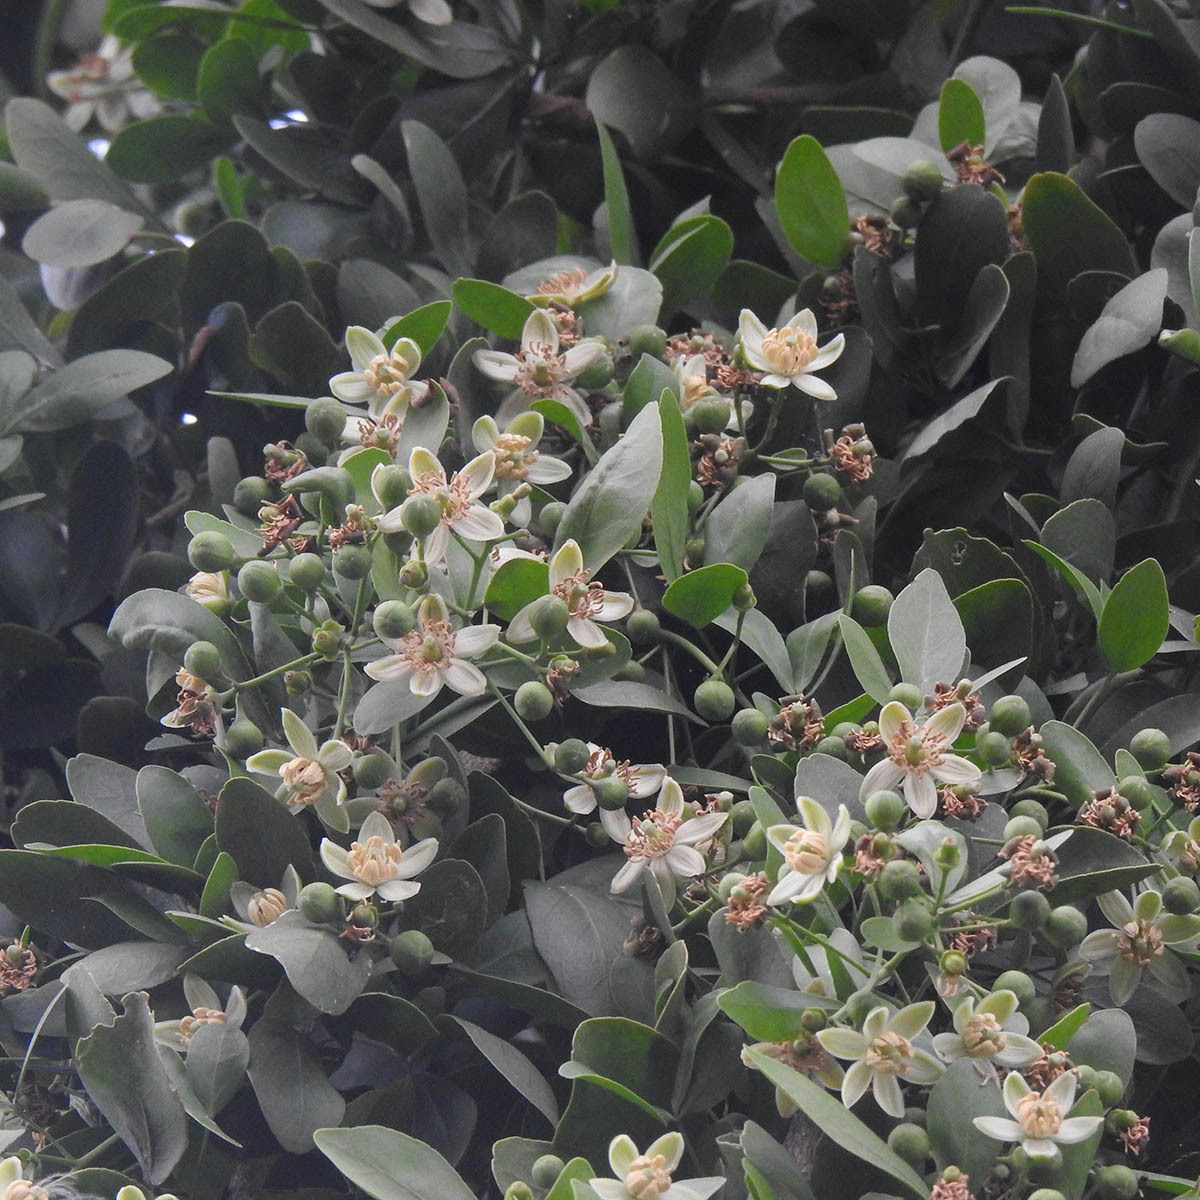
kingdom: Plantae
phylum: Tracheophyta
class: Magnoliopsida
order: Sapindales
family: Rutaceae
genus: Aegle
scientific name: Aegle marmelos
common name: Bael
